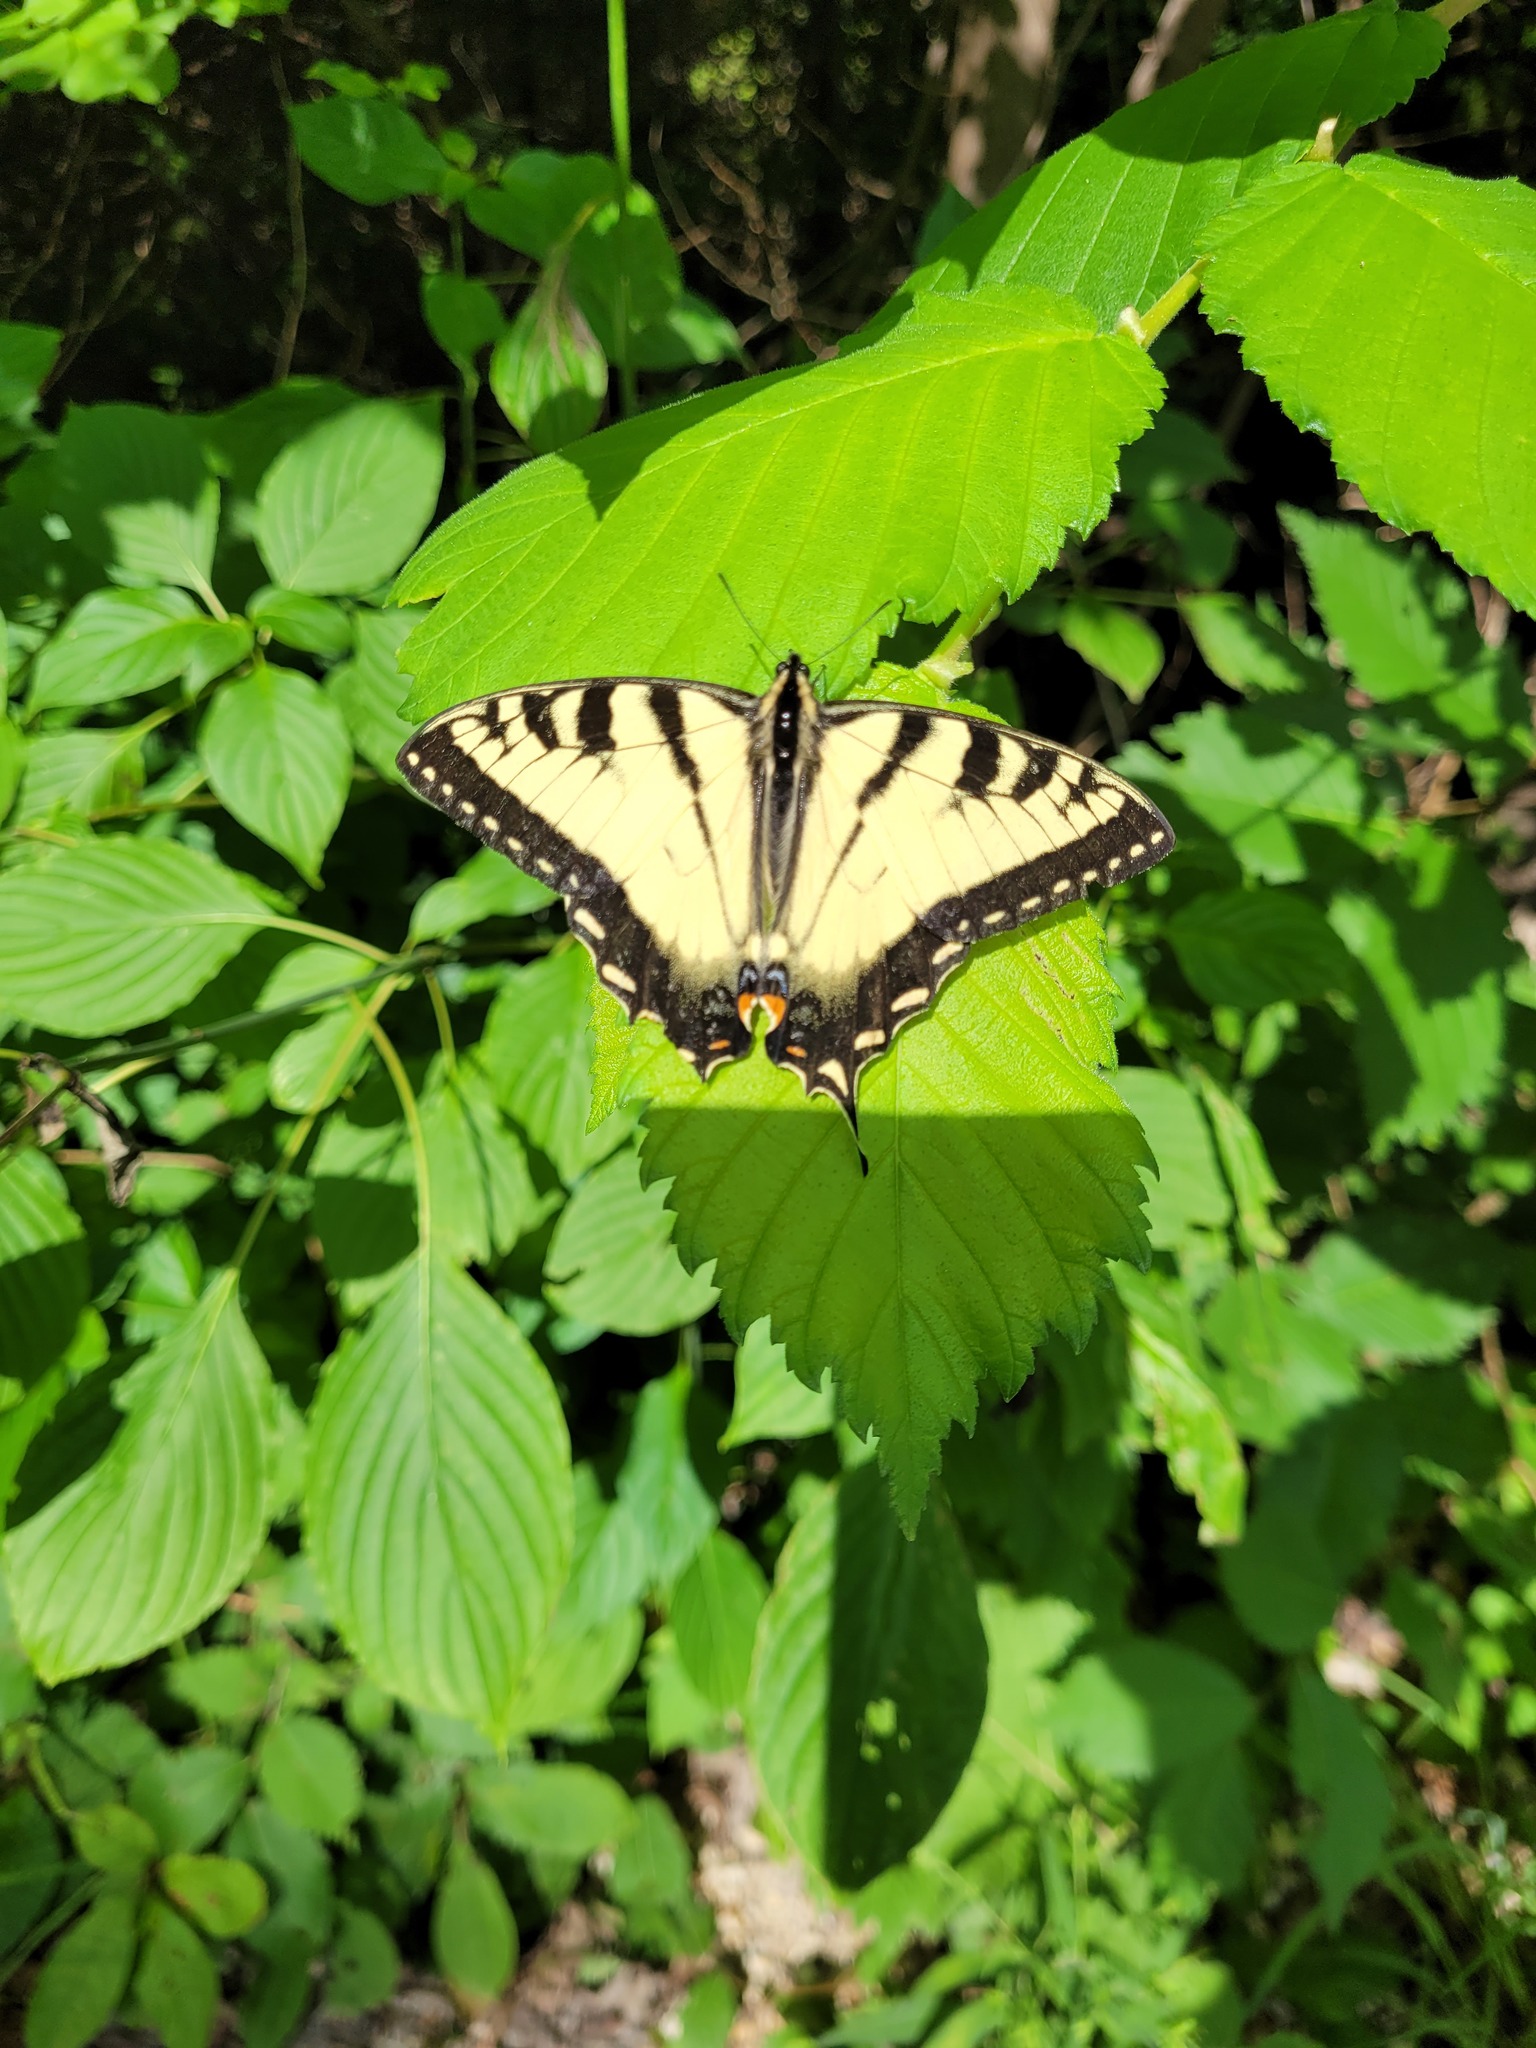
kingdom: Animalia
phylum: Arthropoda
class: Insecta
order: Lepidoptera
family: Papilionidae
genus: Papilio
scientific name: Papilio
